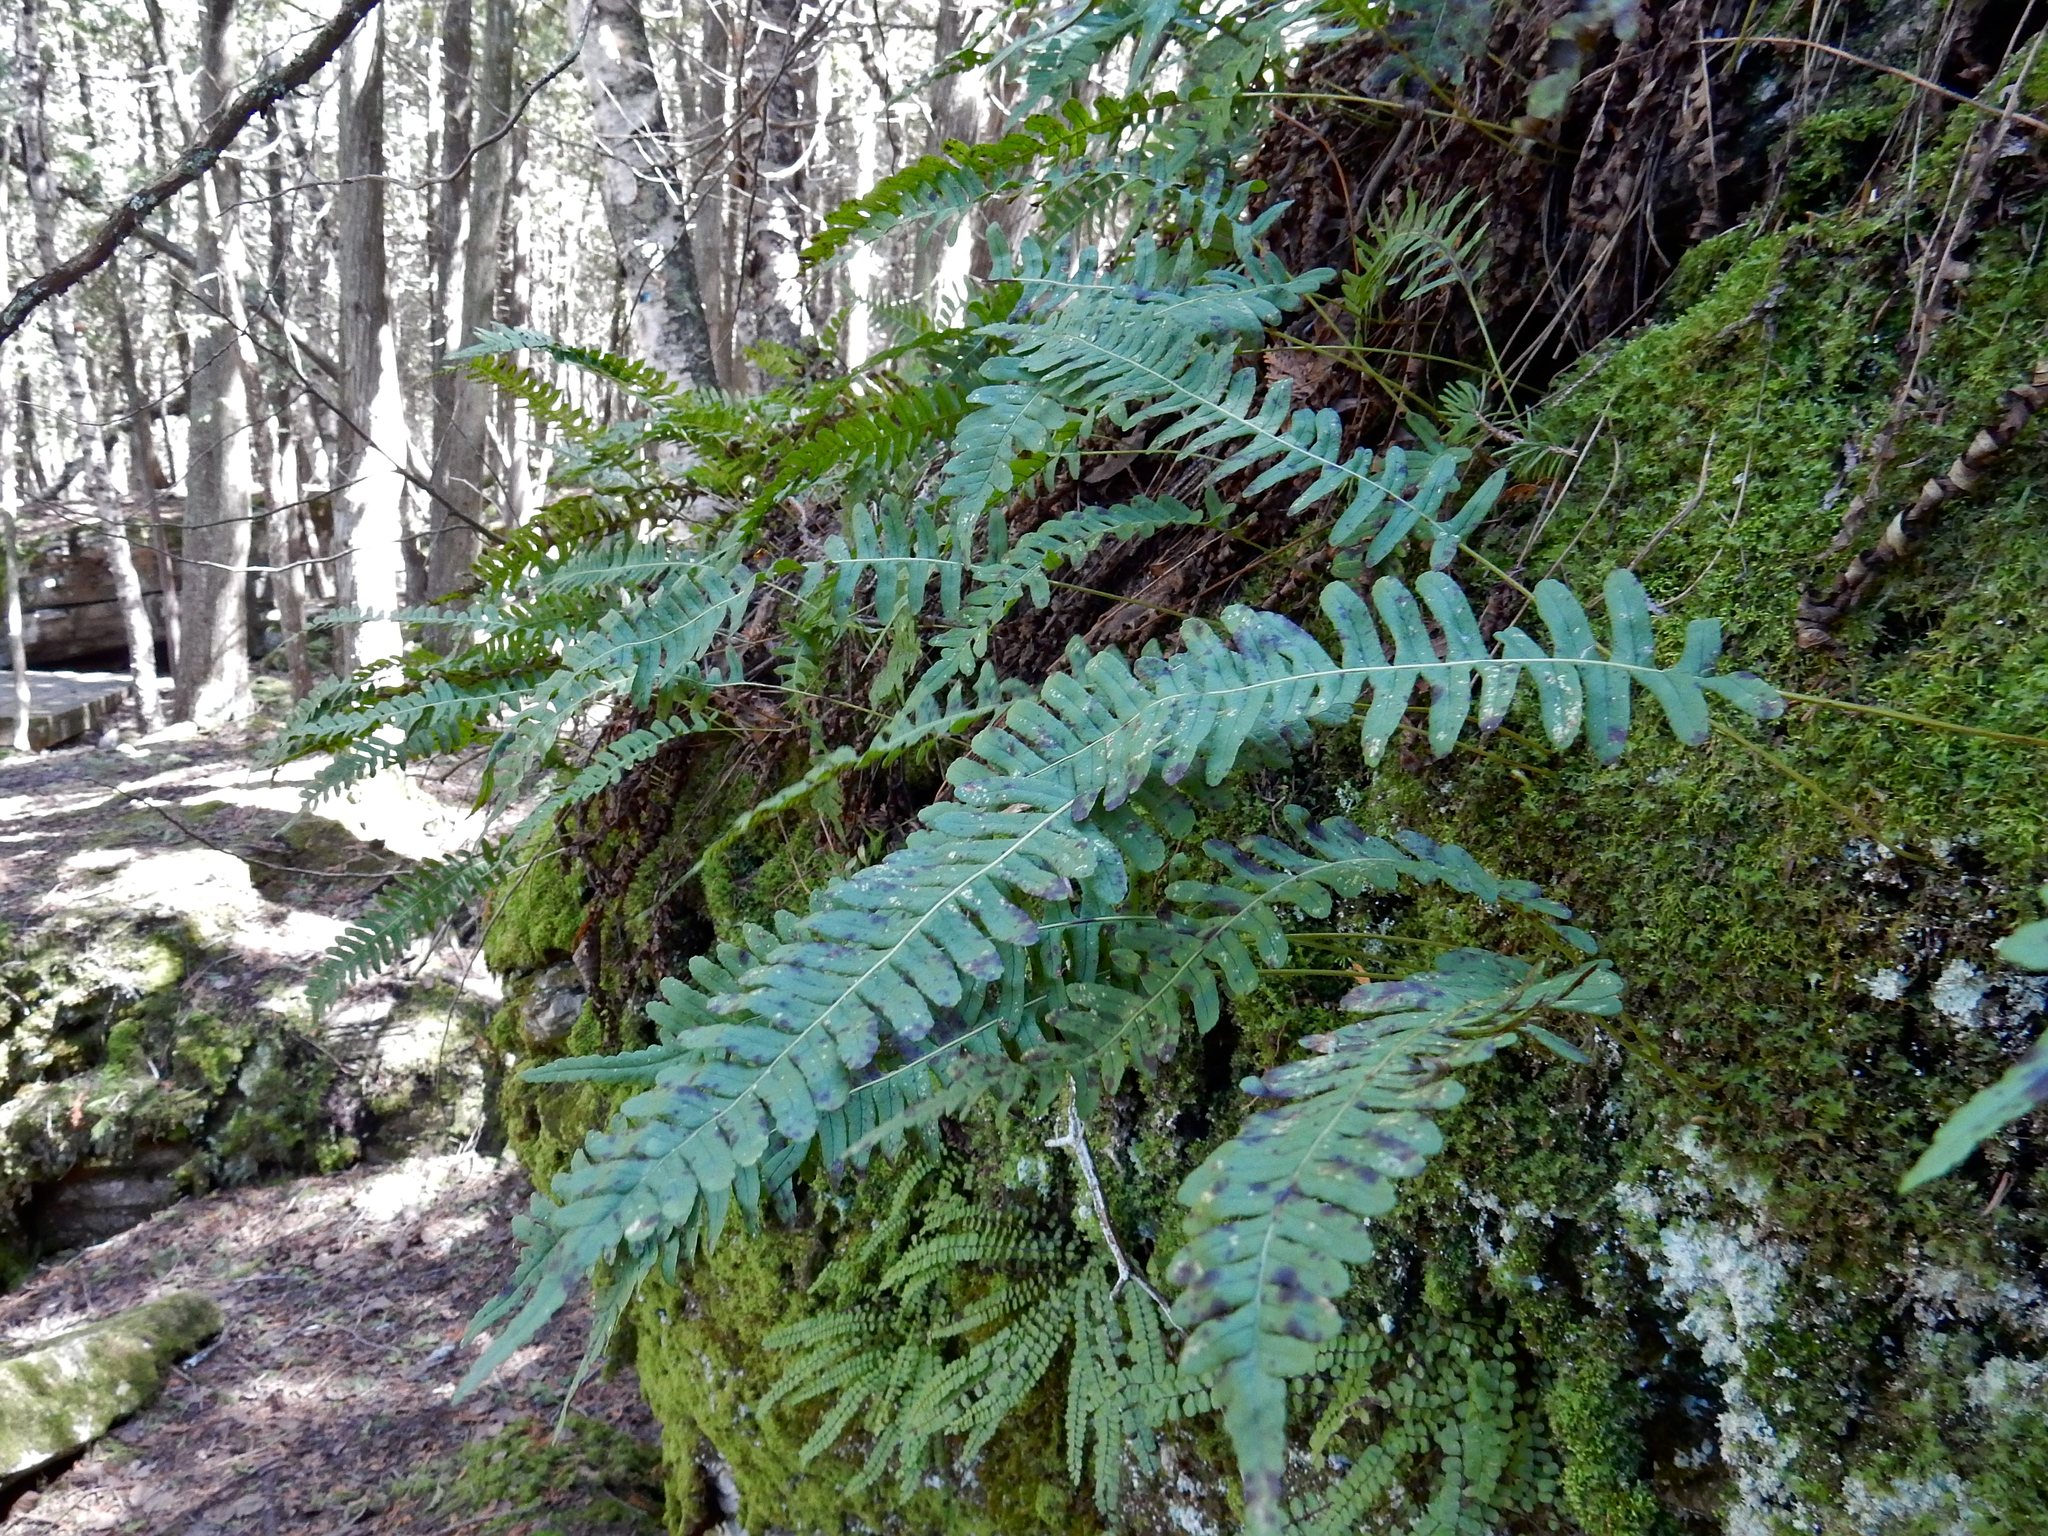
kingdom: Plantae
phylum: Tracheophyta
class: Polypodiopsida
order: Polypodiales
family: Polypodiaceae
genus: Polypodium
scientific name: Polypodium virginianum
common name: American wall fern
